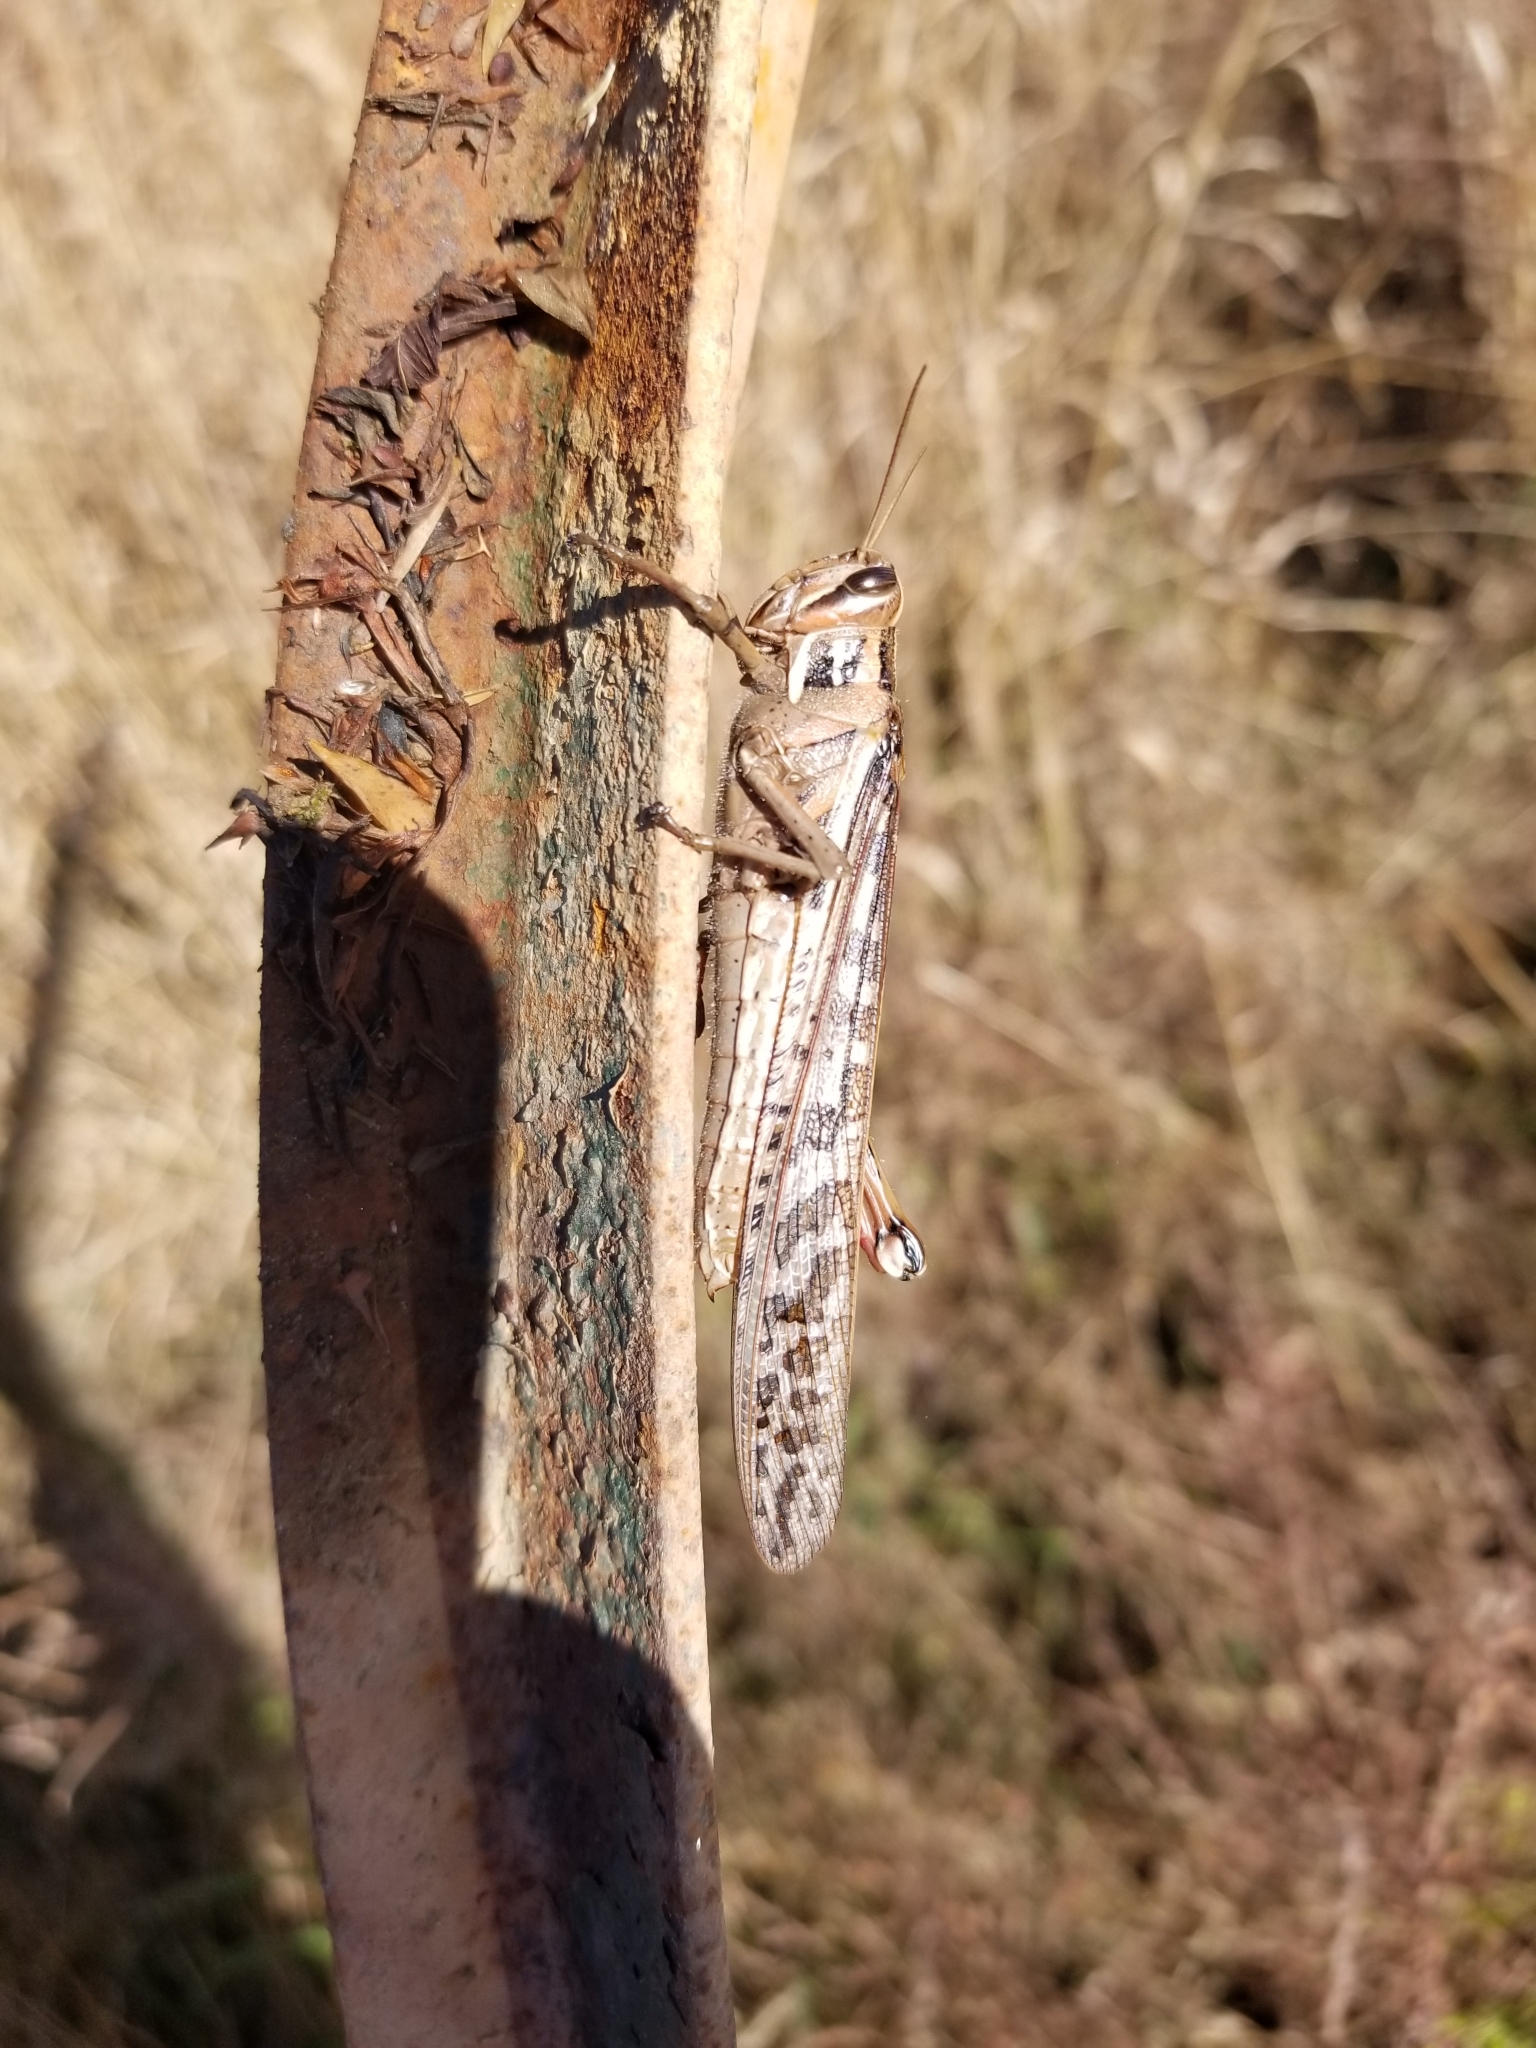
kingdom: Animalia
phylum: Arthropoda
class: Insecta
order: Orthoptera
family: Acrididae
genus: Schistocerca
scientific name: Schistocerca americana
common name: American bird locust
